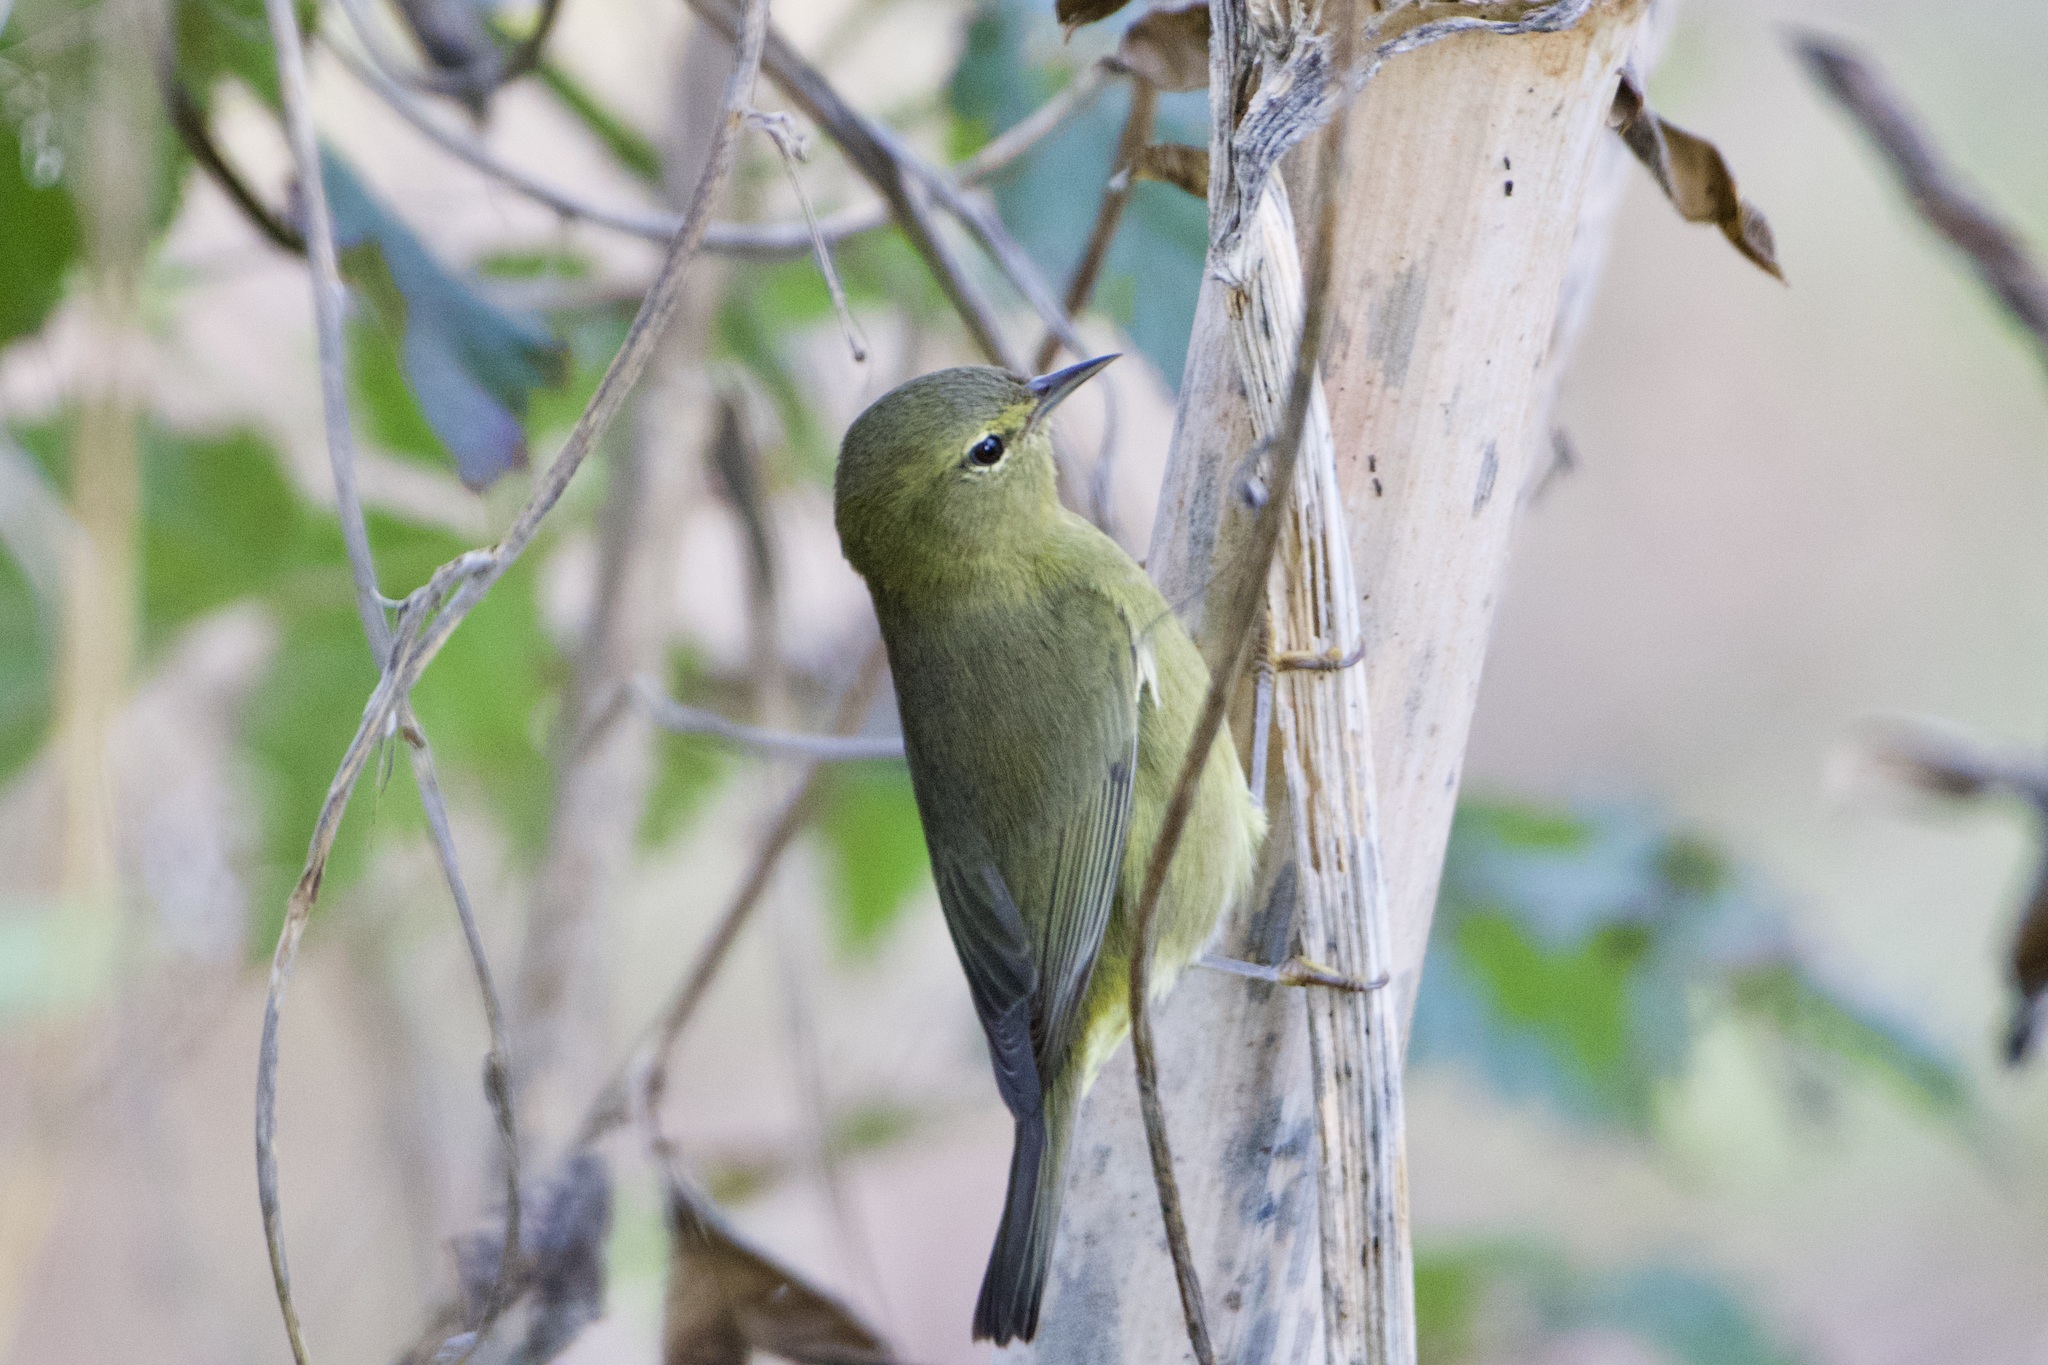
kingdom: Animalia
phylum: Chordata
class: Aves
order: Passeriformes
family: Parulidae
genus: Leiothlypis
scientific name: Leiothlypis celata
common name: Orange-crowned warbler
